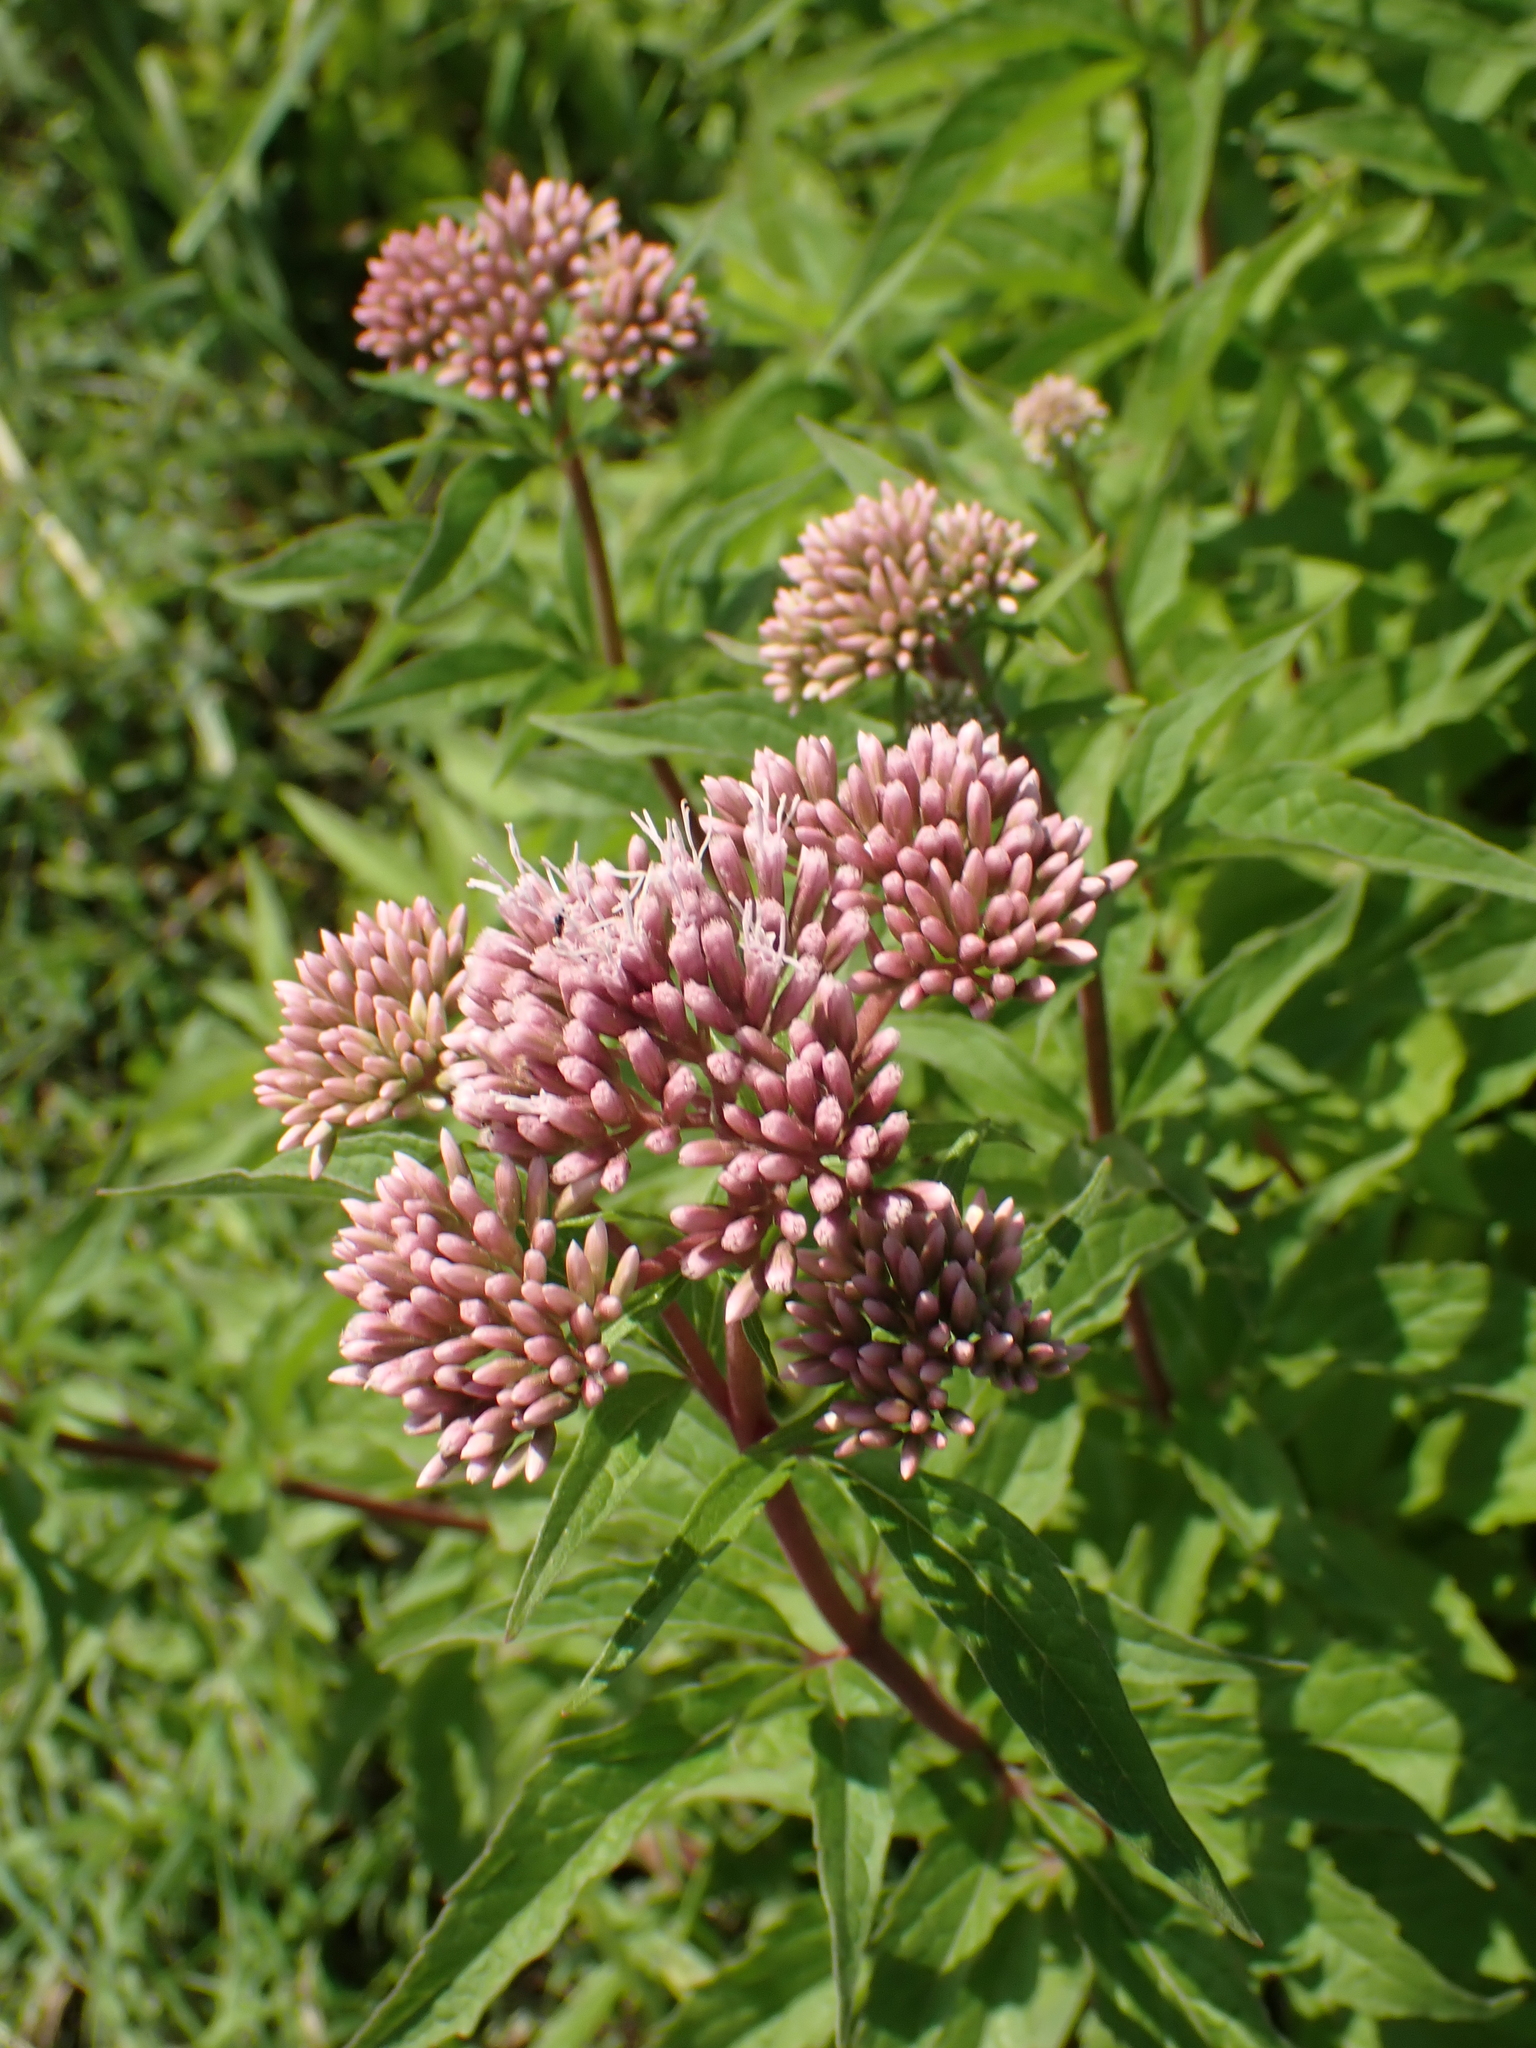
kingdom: Plantae
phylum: Tracheophyta
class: Magnoliopsida
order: Asterales
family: Asteraceae
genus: Eupatorium
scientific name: Eupatorium cannabinum
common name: Hemp-agrimony
